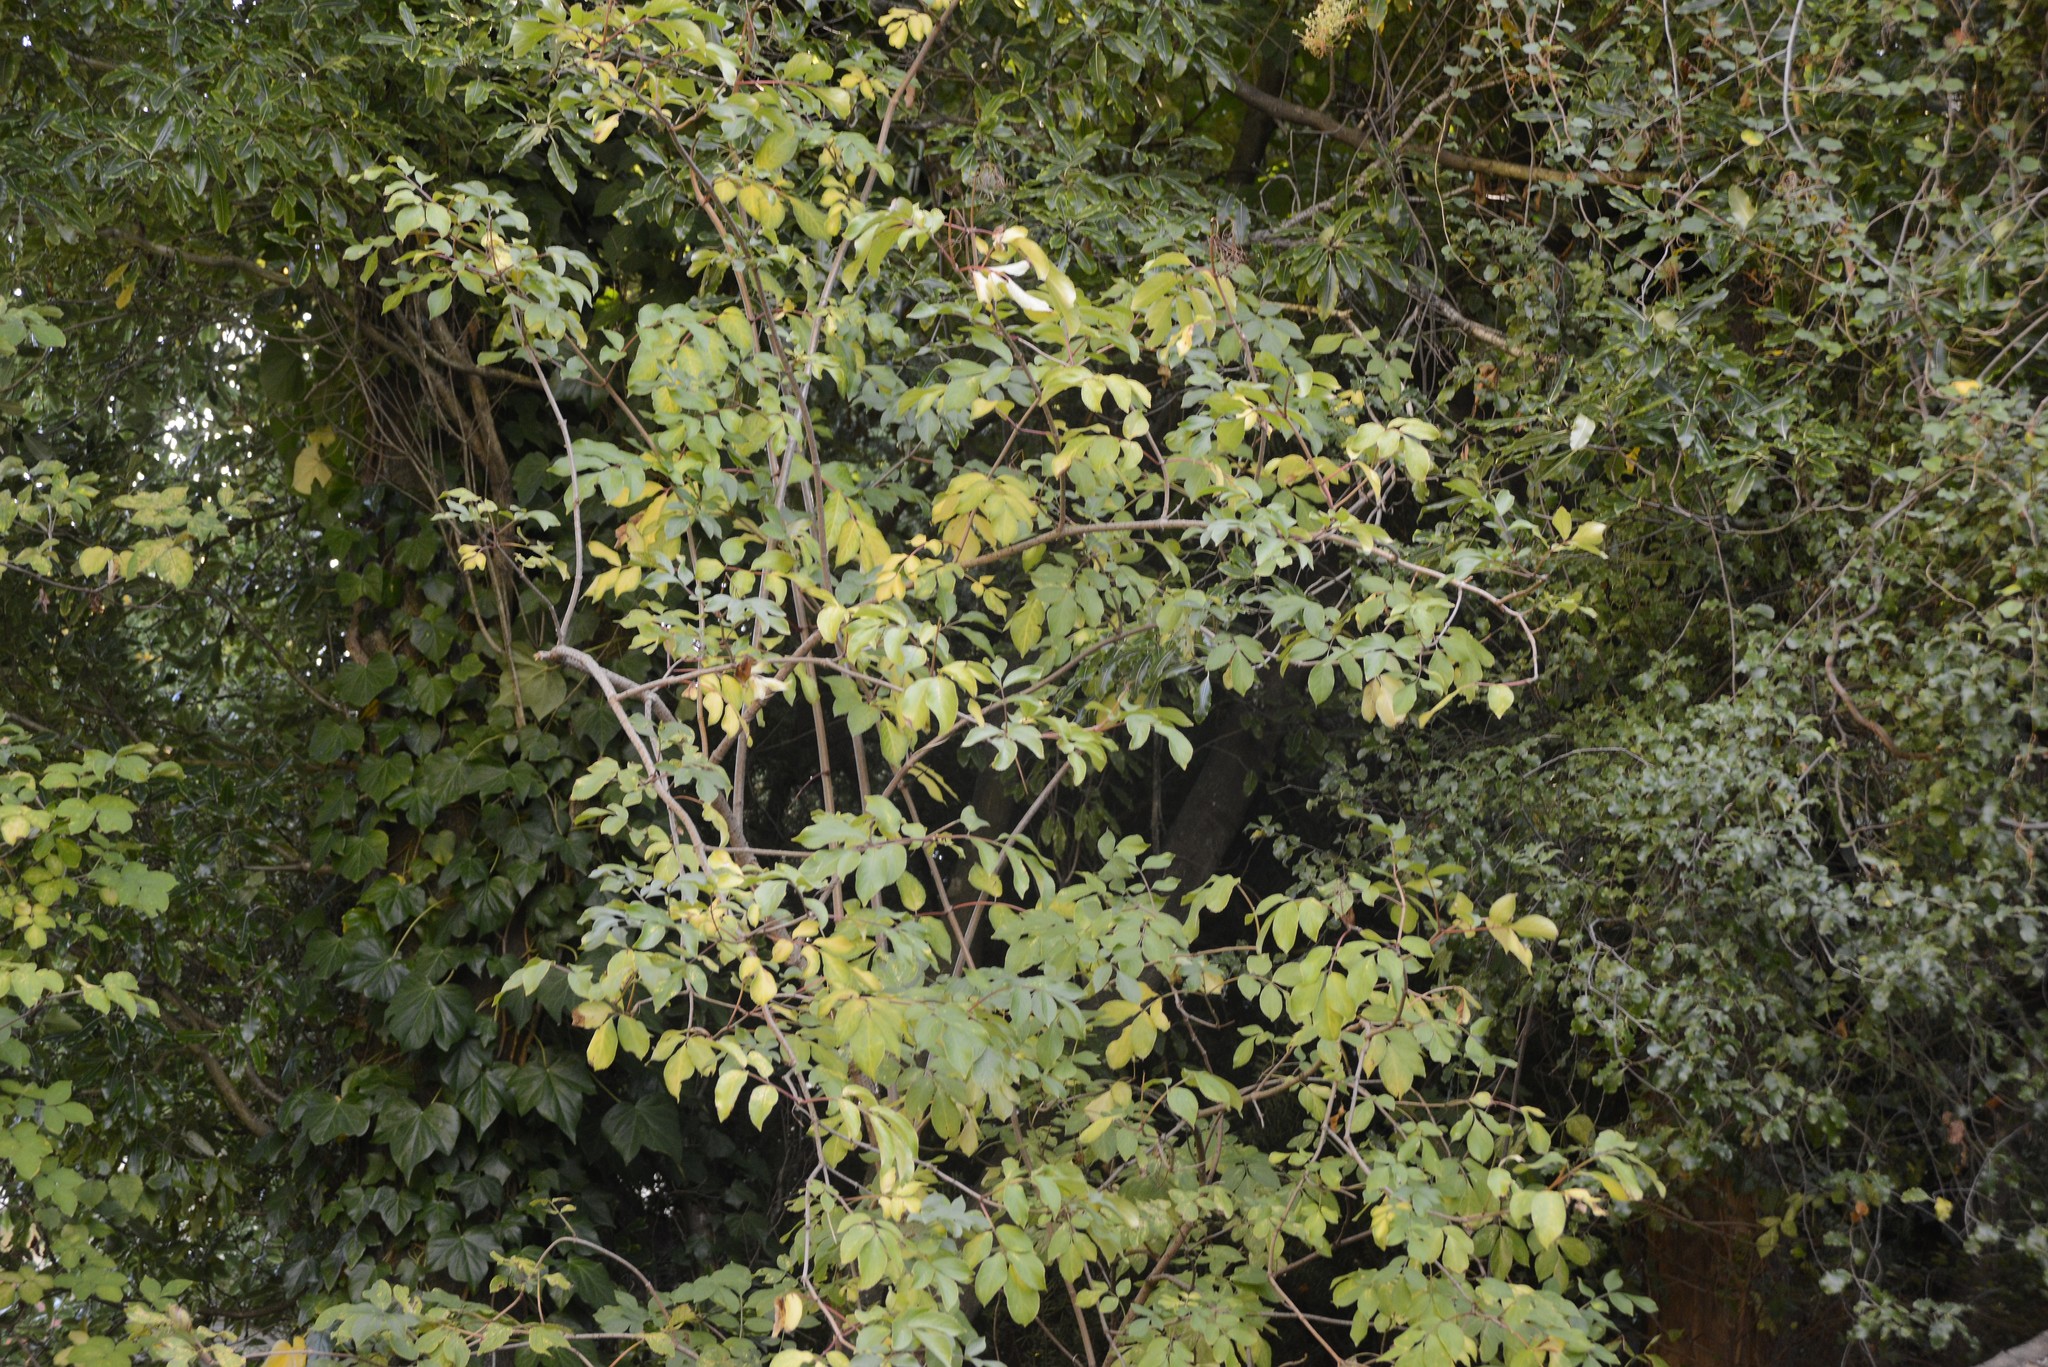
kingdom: Plantae
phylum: Tracheophyta
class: Magnoliopsida
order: Dipsacales
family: Viburnaceae
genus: Sambucus
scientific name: Sambucus nigra
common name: Elder
